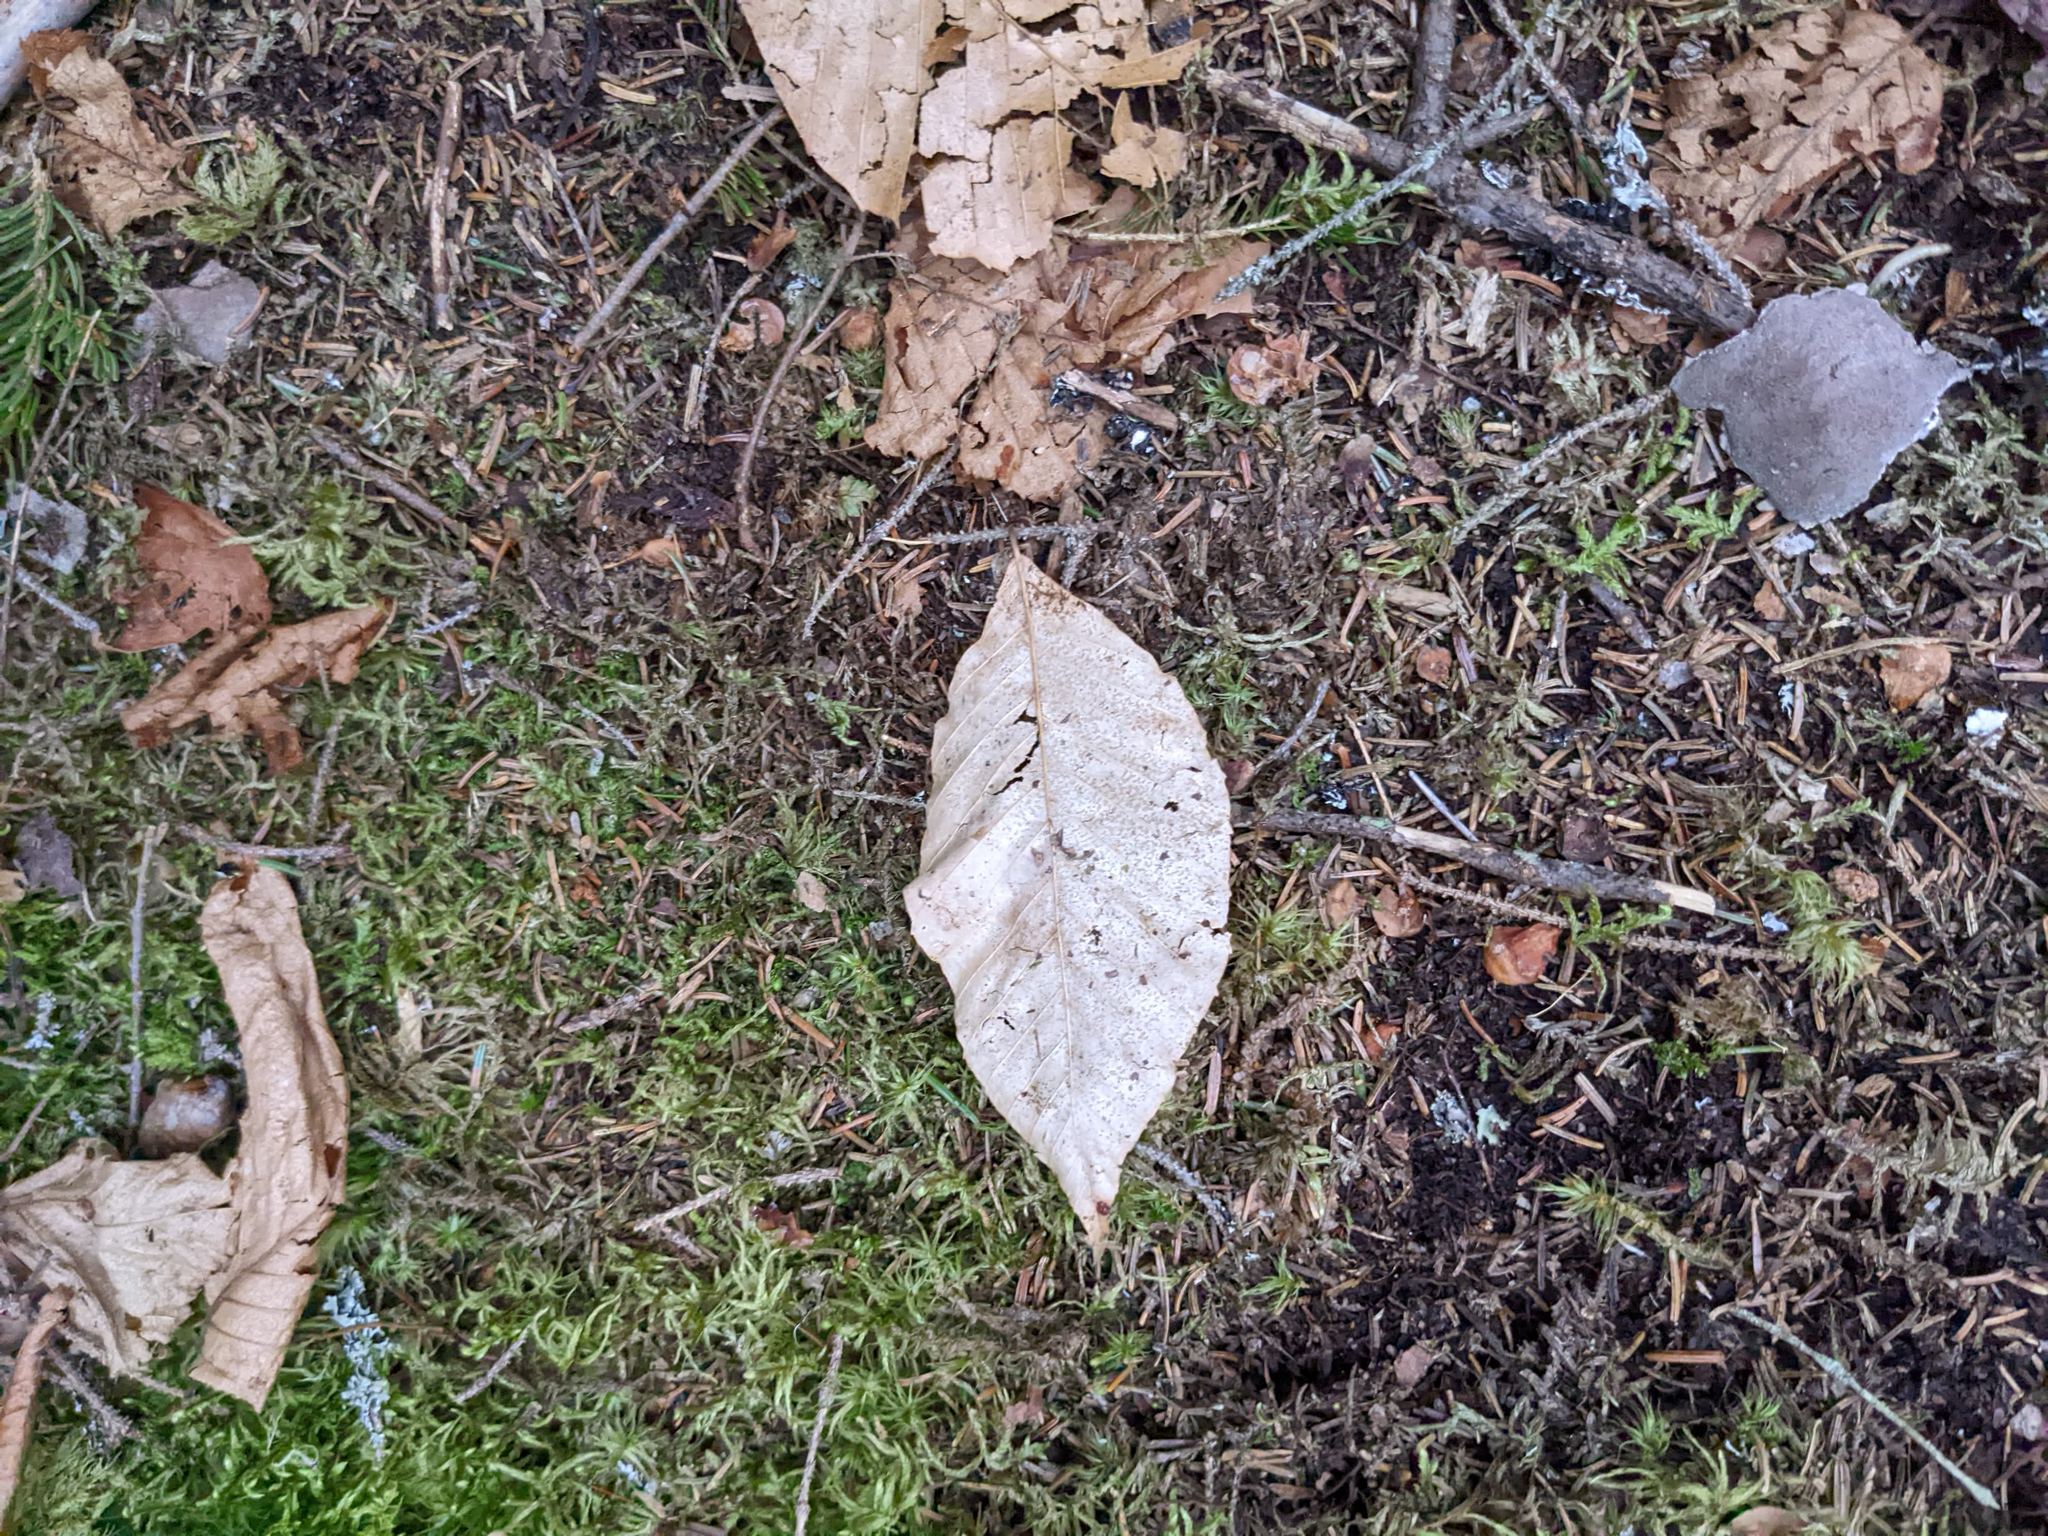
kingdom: Plantae
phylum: Tracheophyta
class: Magnoliopsida
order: Fagales
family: Fagaceae
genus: Fagus
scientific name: Fagus grandifolia
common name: American beech
